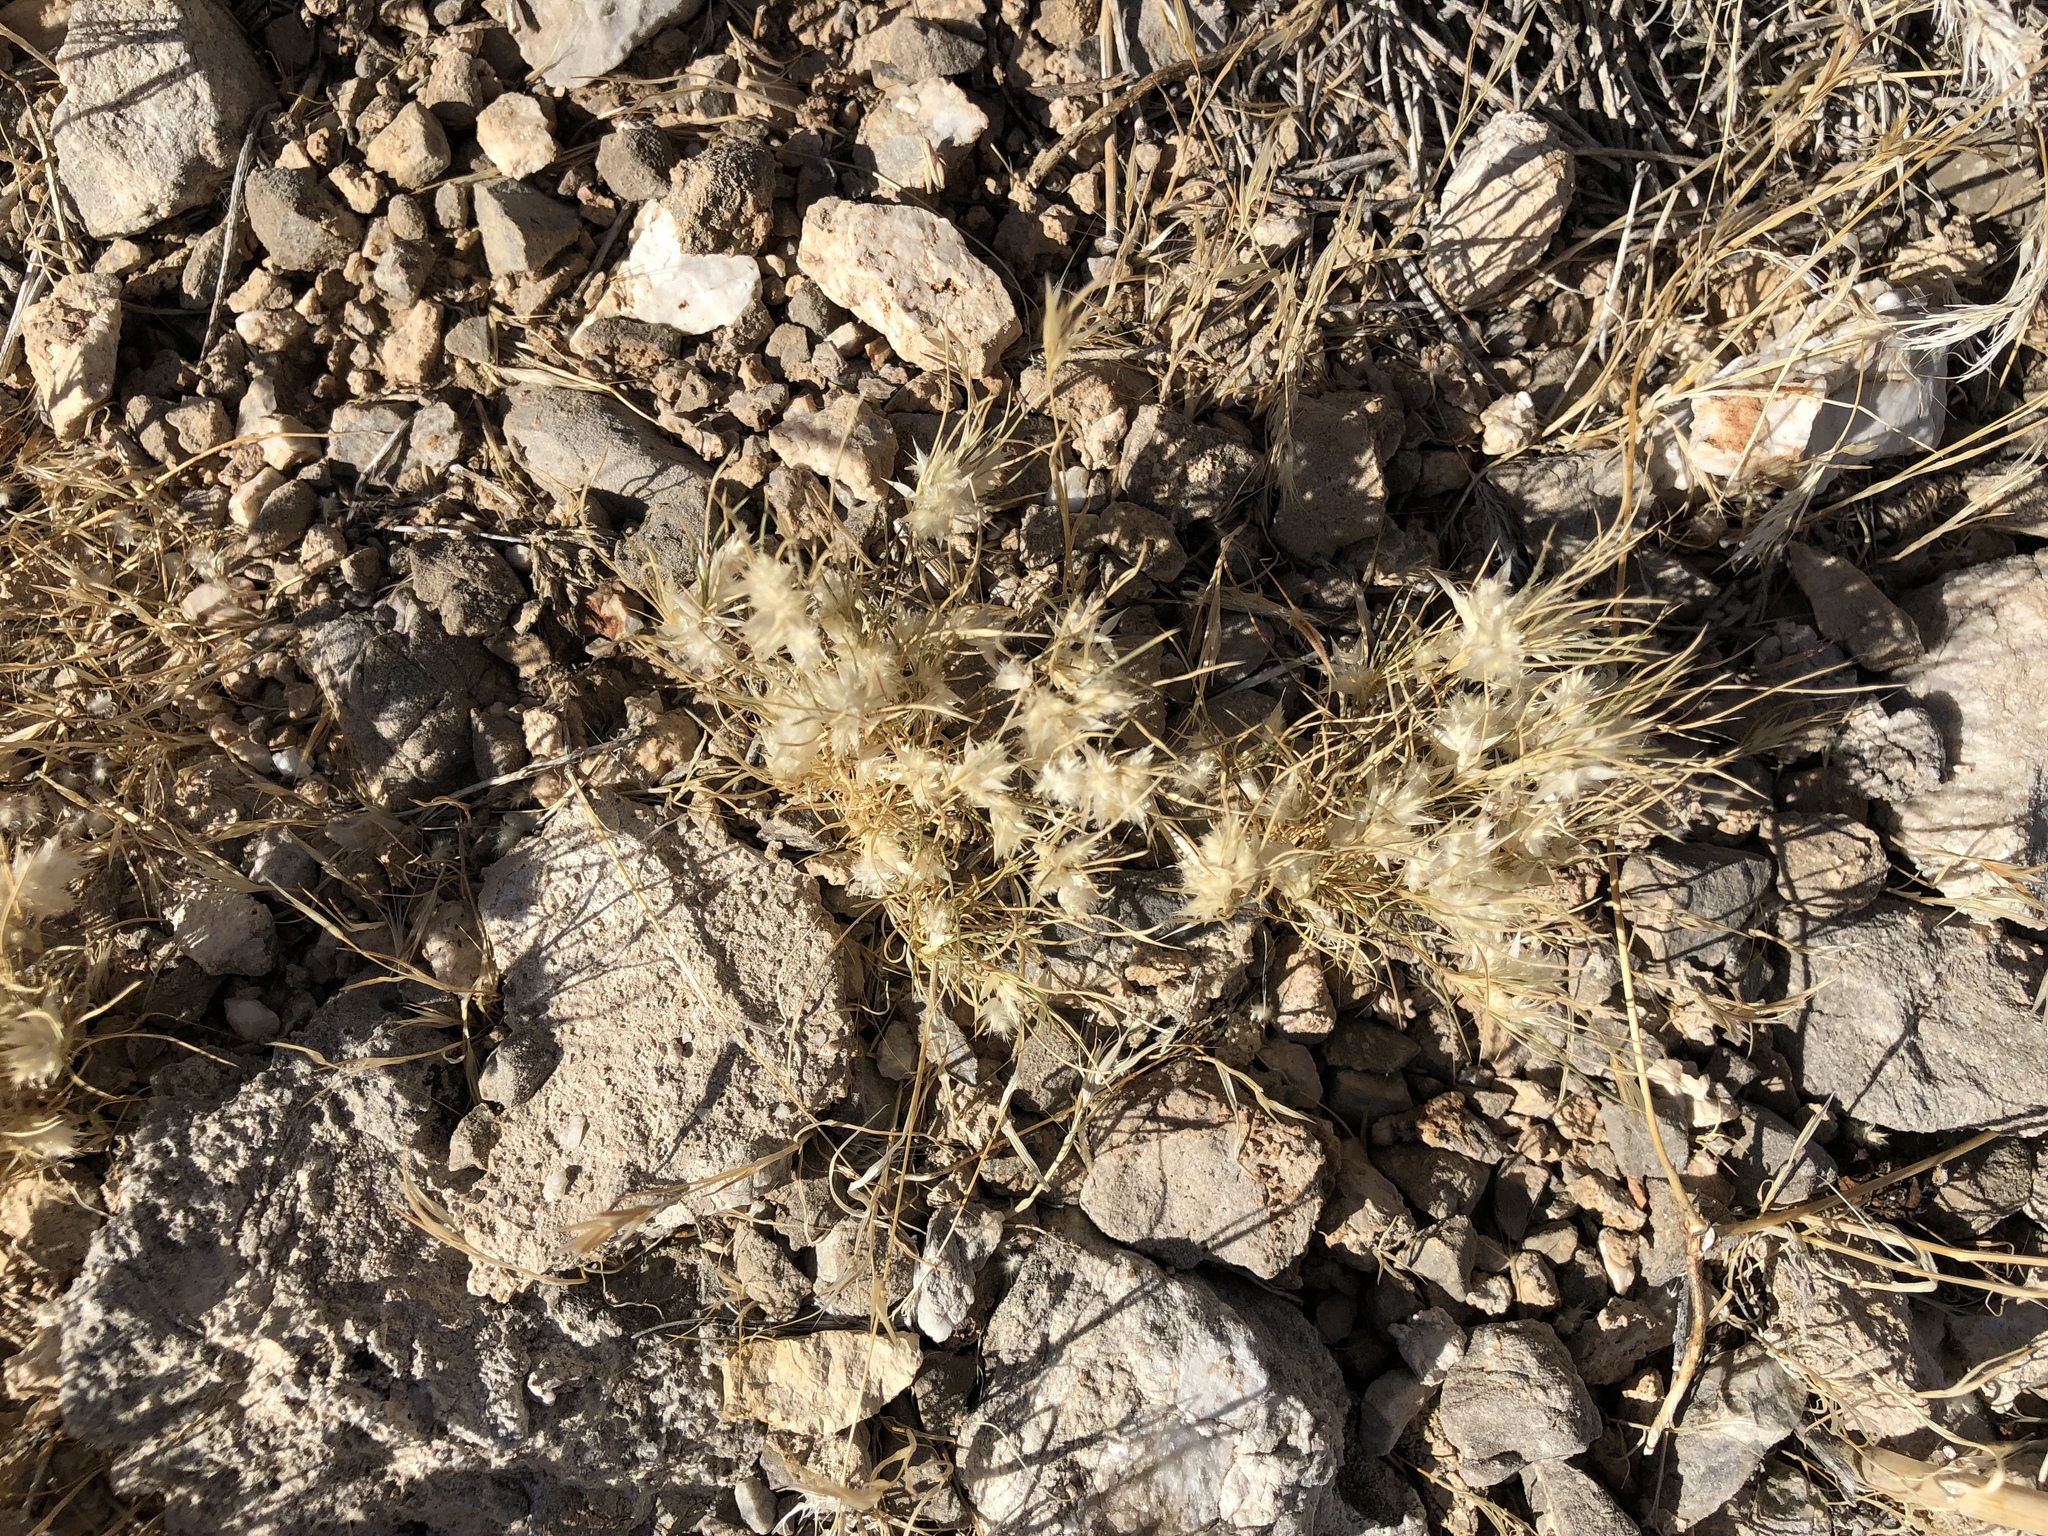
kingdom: Plantae
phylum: Tracheophyta
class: Liliopsida
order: Poales
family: Poaceae
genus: Dasyochloa
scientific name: Dasyochloa pulchella
